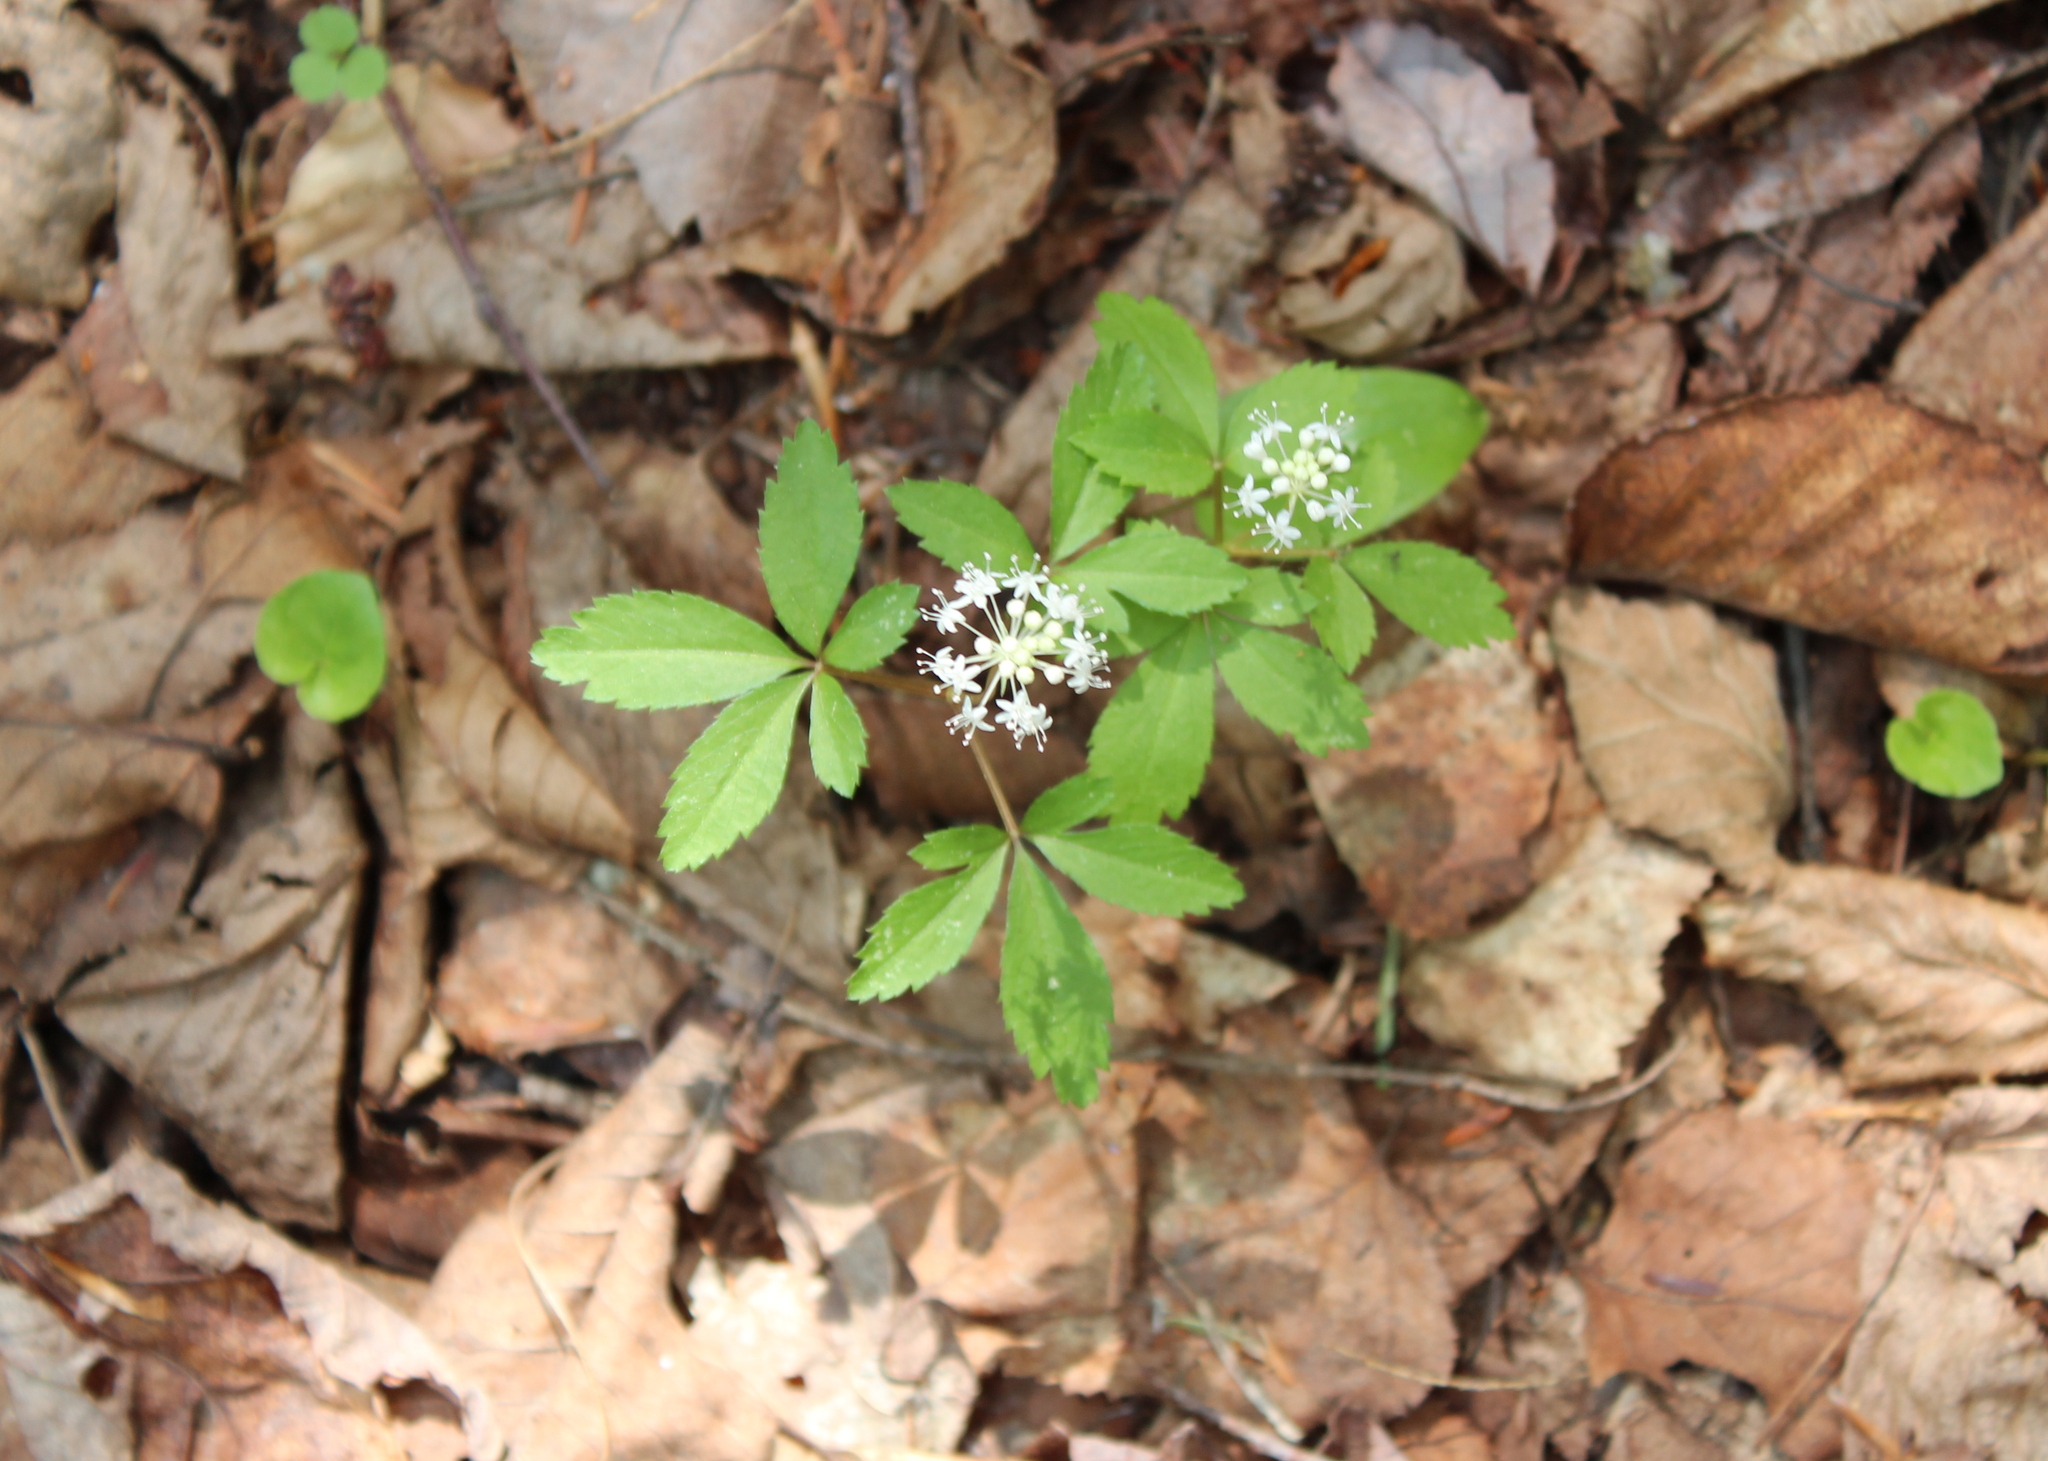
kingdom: Plantae
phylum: Tracheophyta
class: Magnoliopsida
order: Apiales
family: Araliaceae
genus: Panax
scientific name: Panax trifolius
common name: Dwarf ginseng
